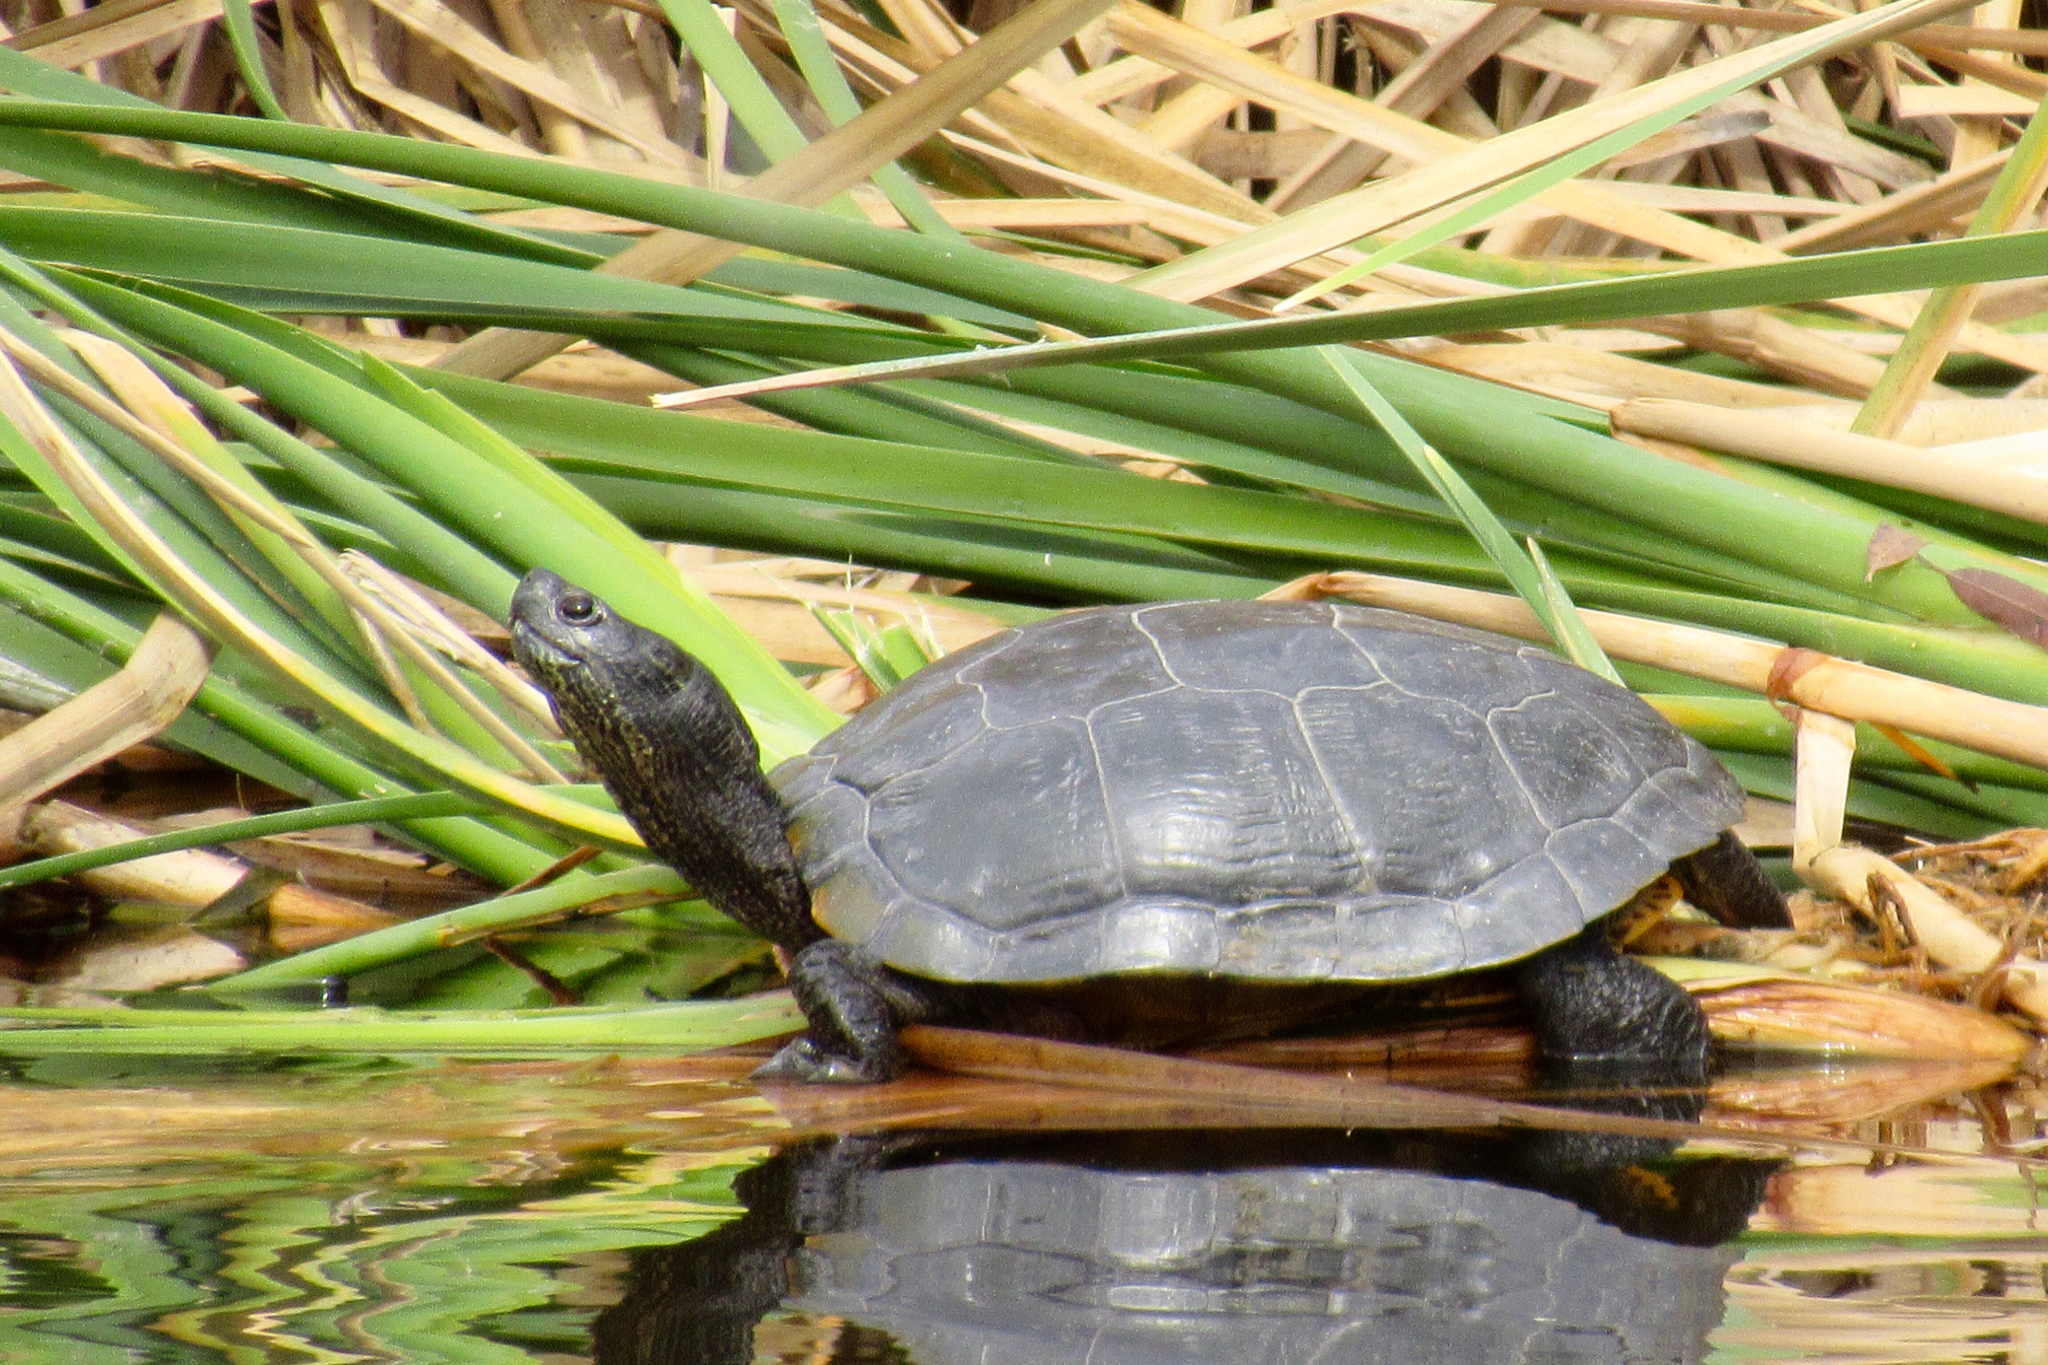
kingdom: Animalia
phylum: Chordata
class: Testudines
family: Emydidae
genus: Trachemys
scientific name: Trachemys scripta
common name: Slider
